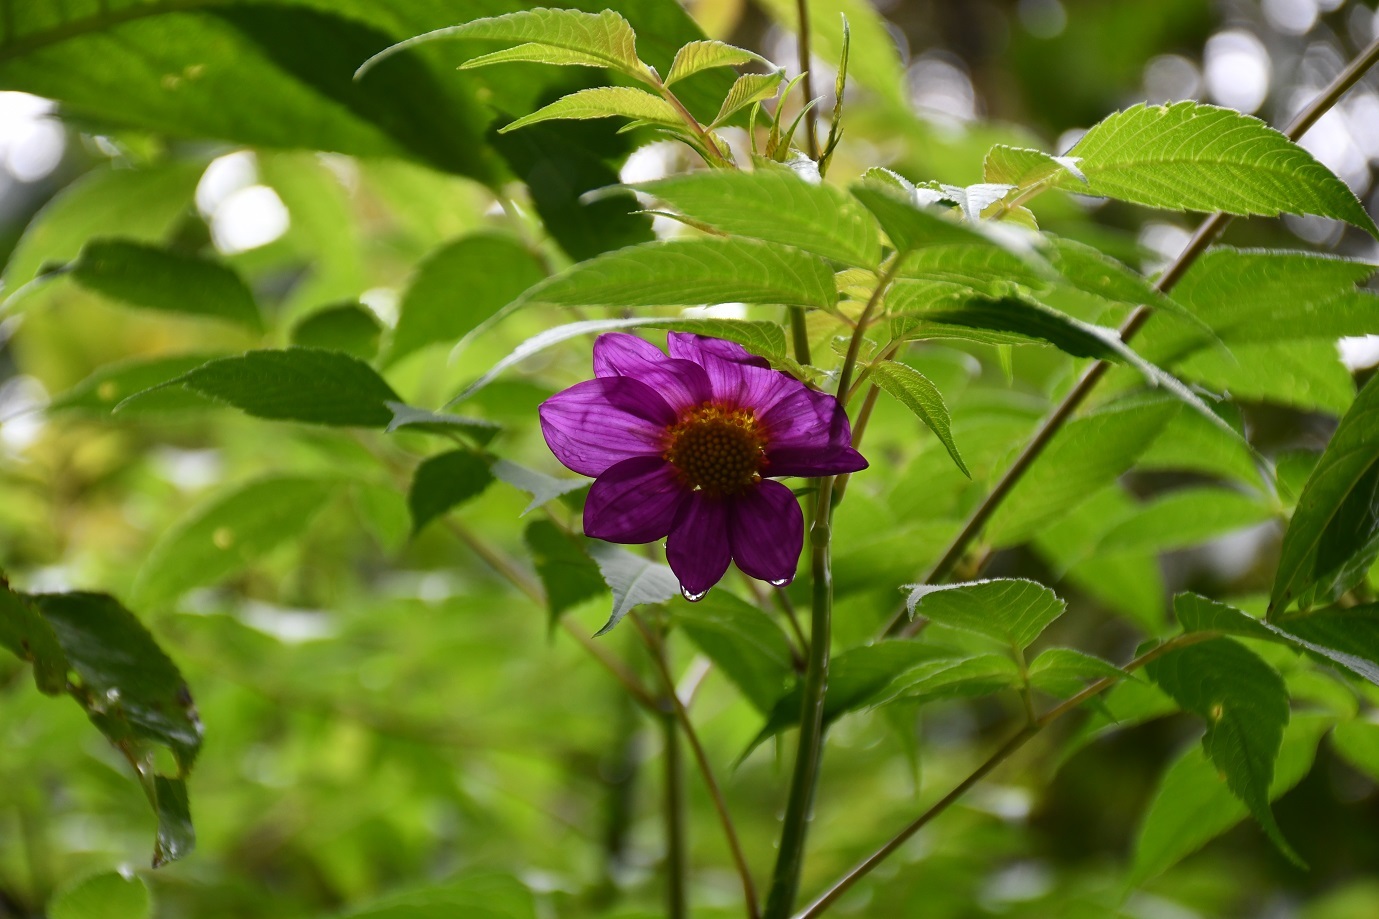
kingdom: Plantae
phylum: Tracheophyta
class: Magnoliopsida
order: Asterales
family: Asteraceae
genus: Dahlia
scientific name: Dahlia hintonii
